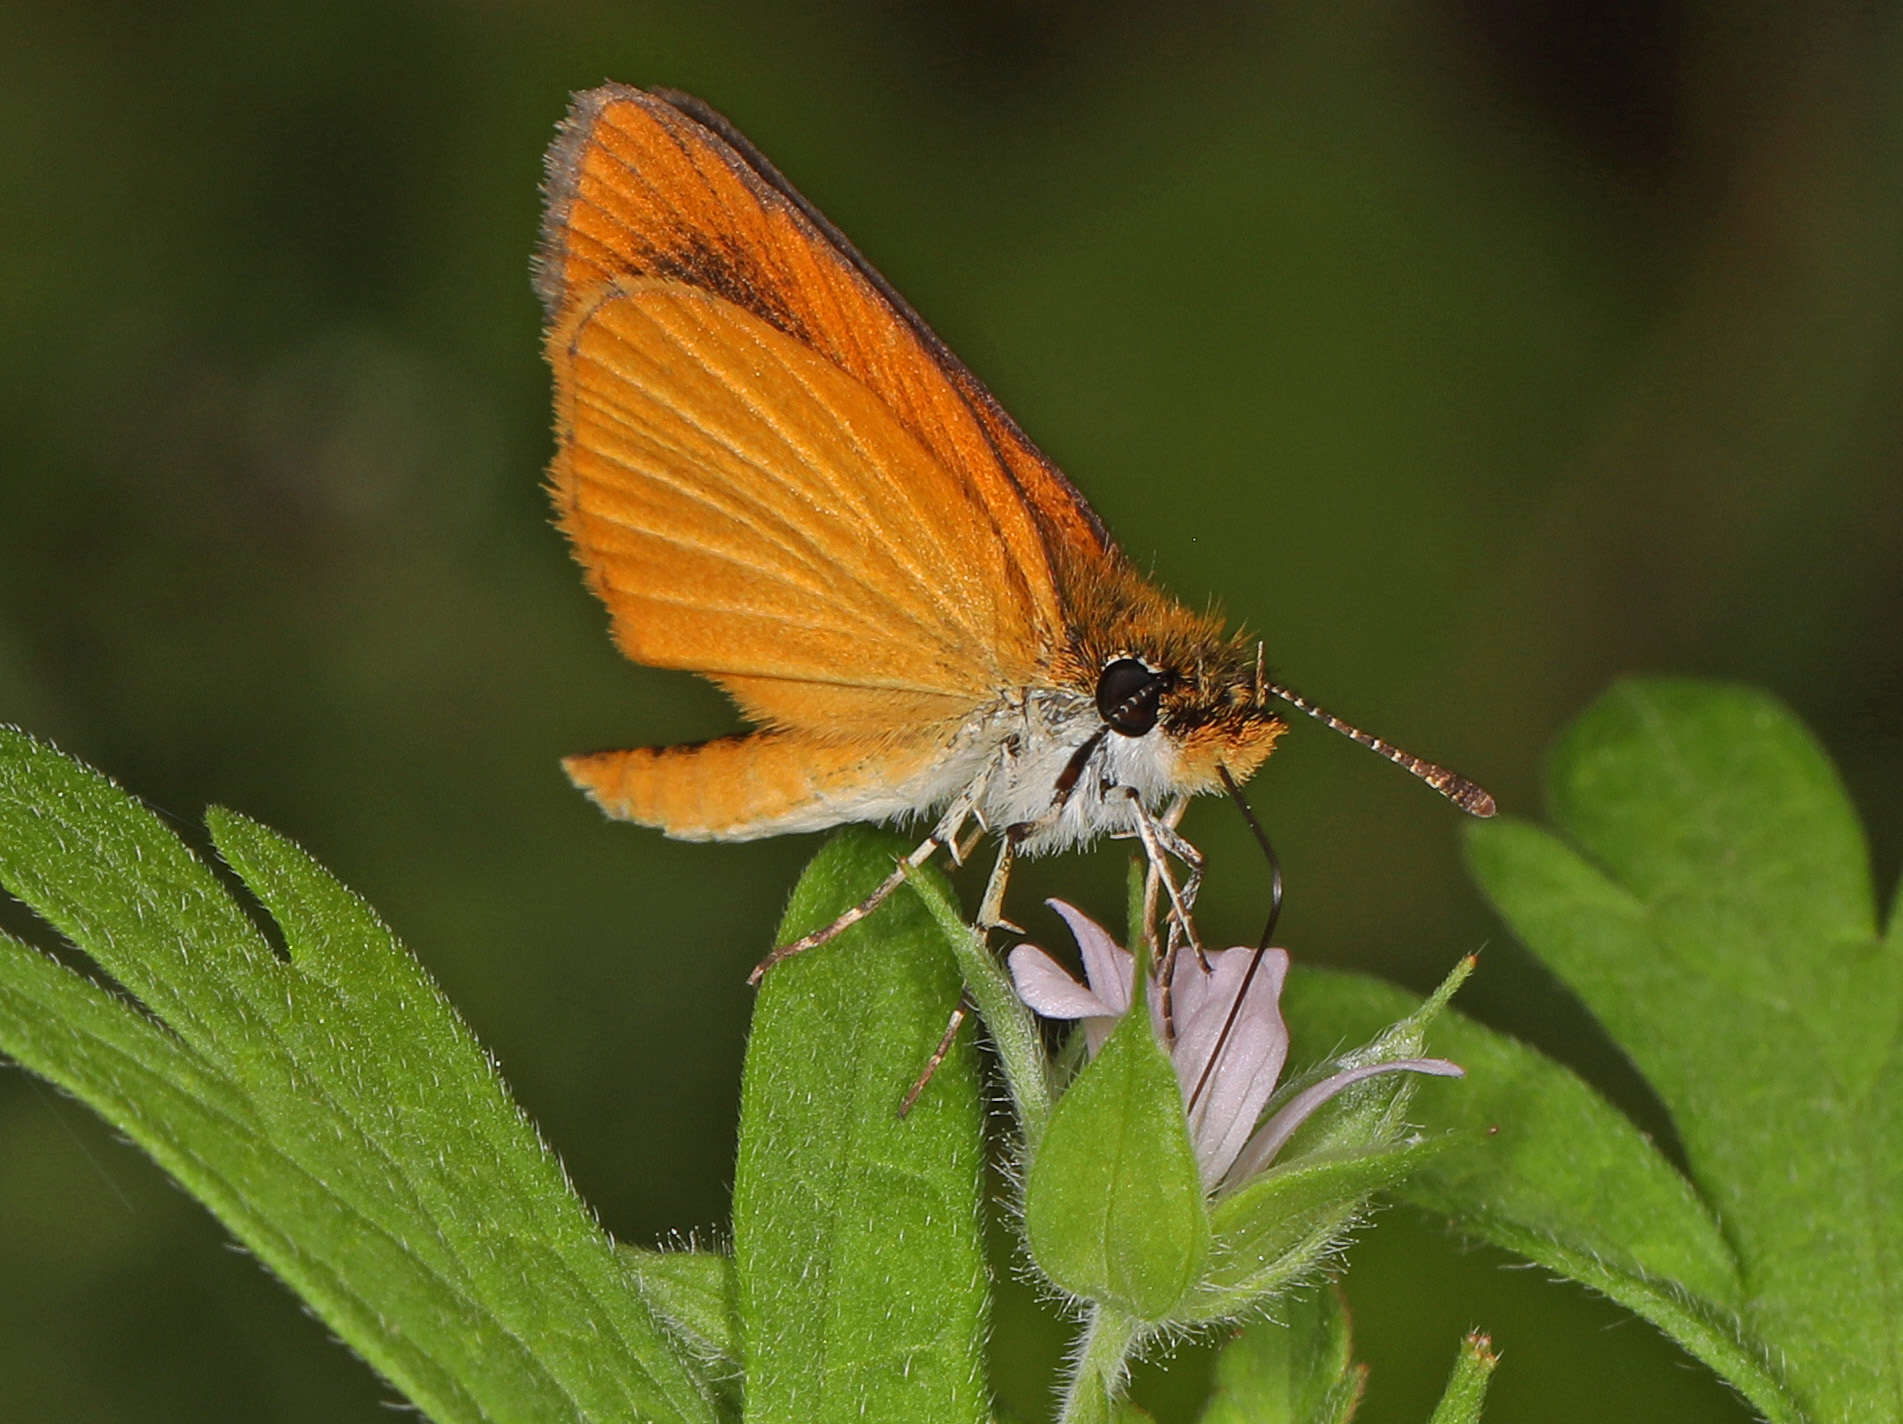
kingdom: Animalia
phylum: Arthropoda
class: Insecta
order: Lepidoptera
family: Hesperiidae
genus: Ancyloxypha
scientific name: Ancyloxypha numitor
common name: Least skipper
